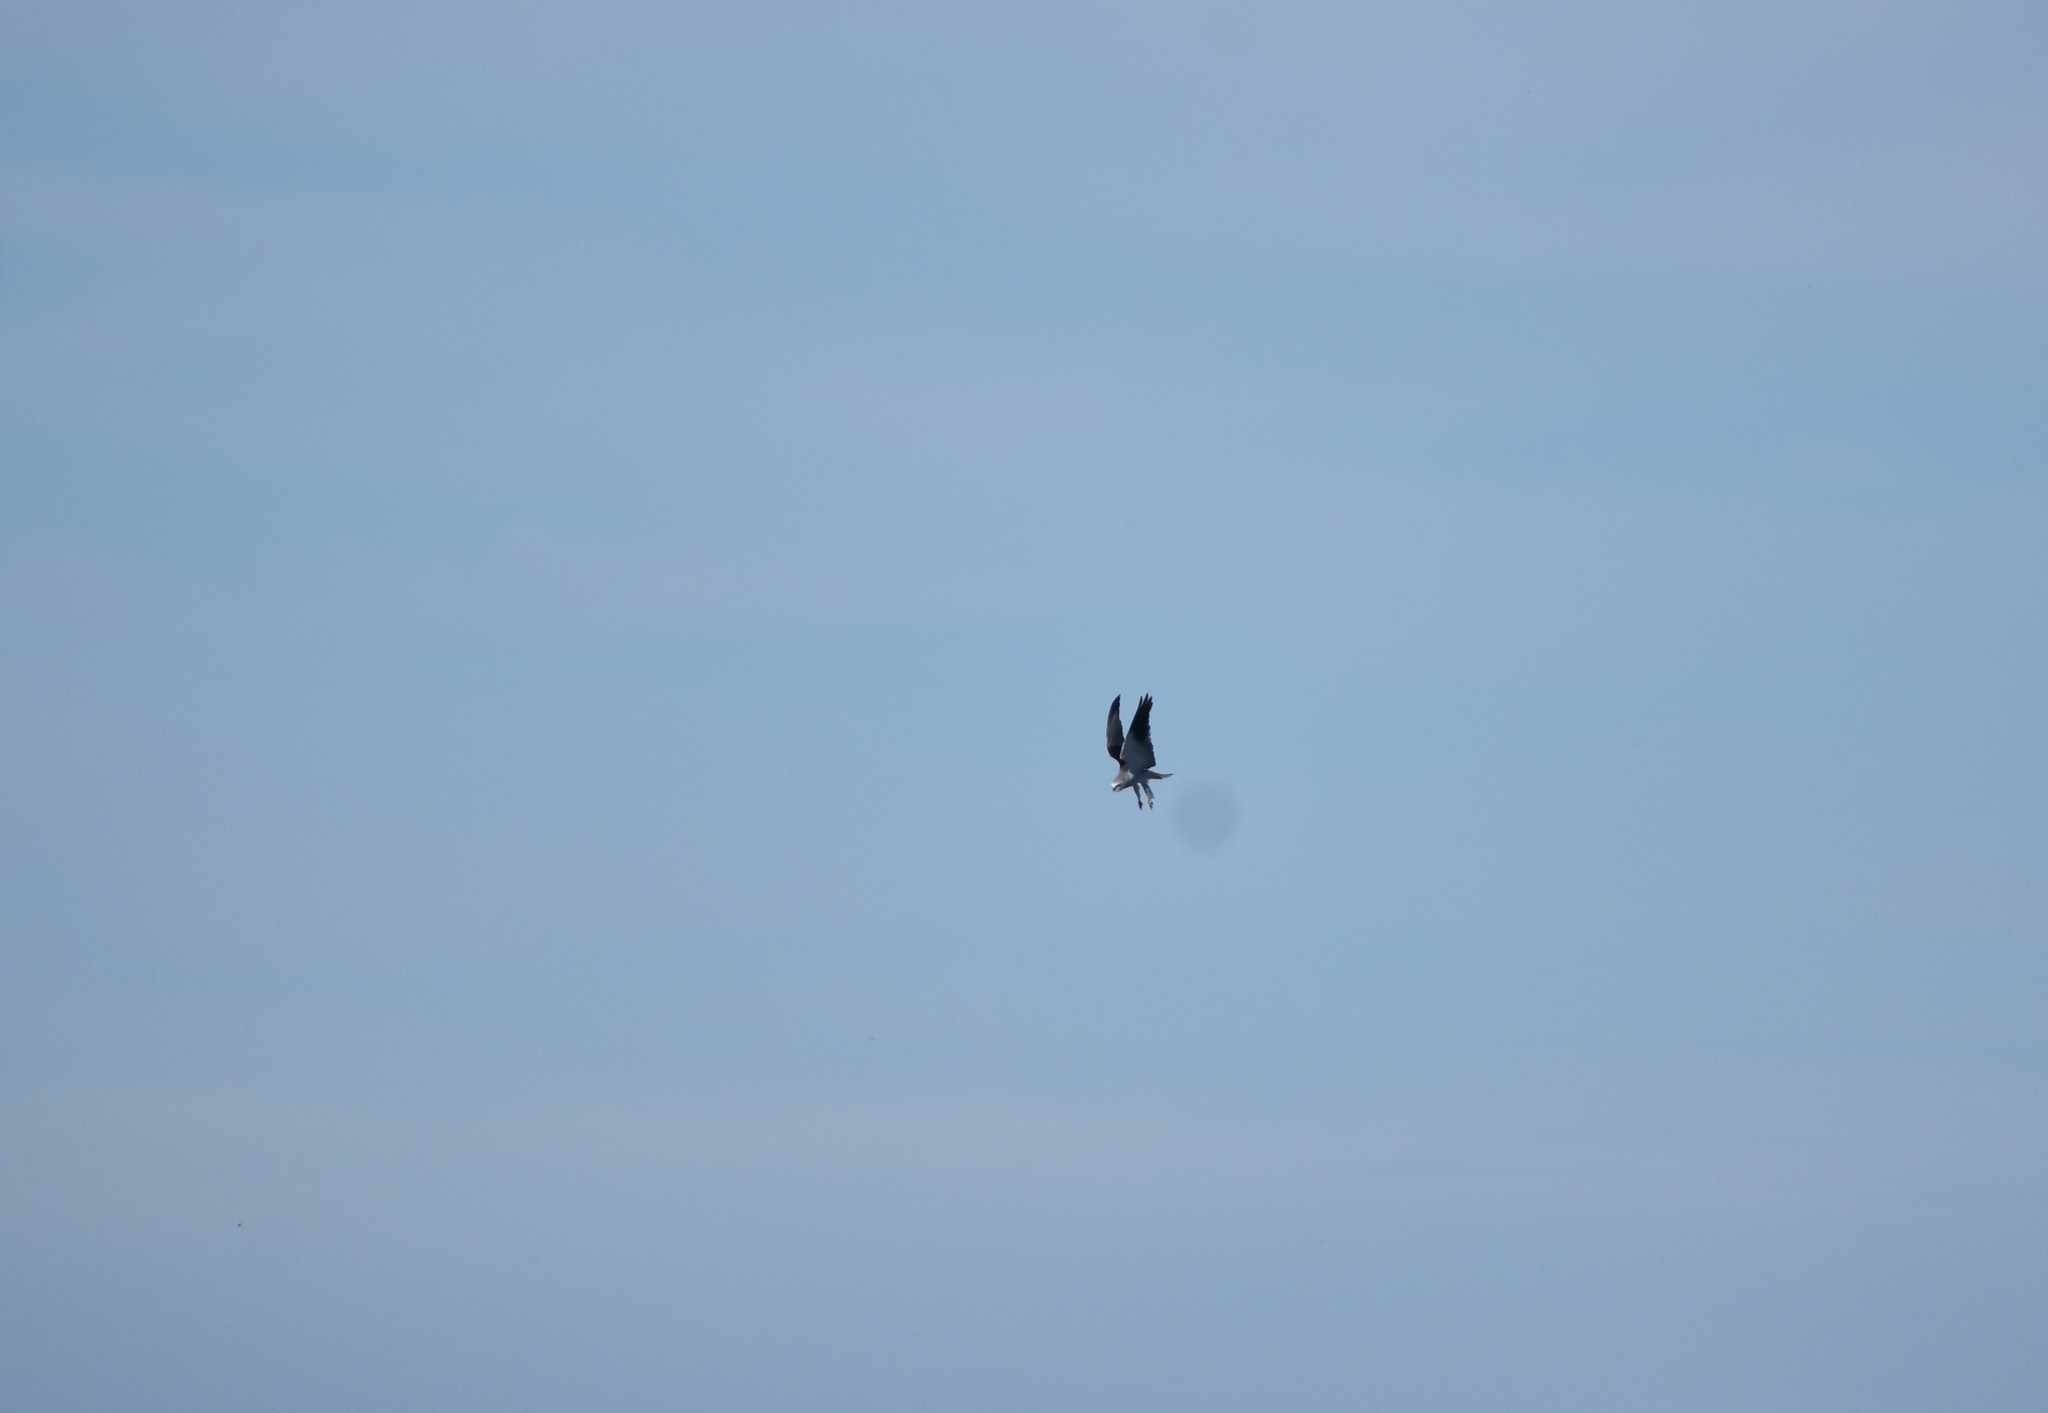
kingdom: Animalia
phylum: Chordata
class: Aves
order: Accipitriformes
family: Accipitridae
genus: Elanus
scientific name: Elanus caeruleus
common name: Black-winged kite
